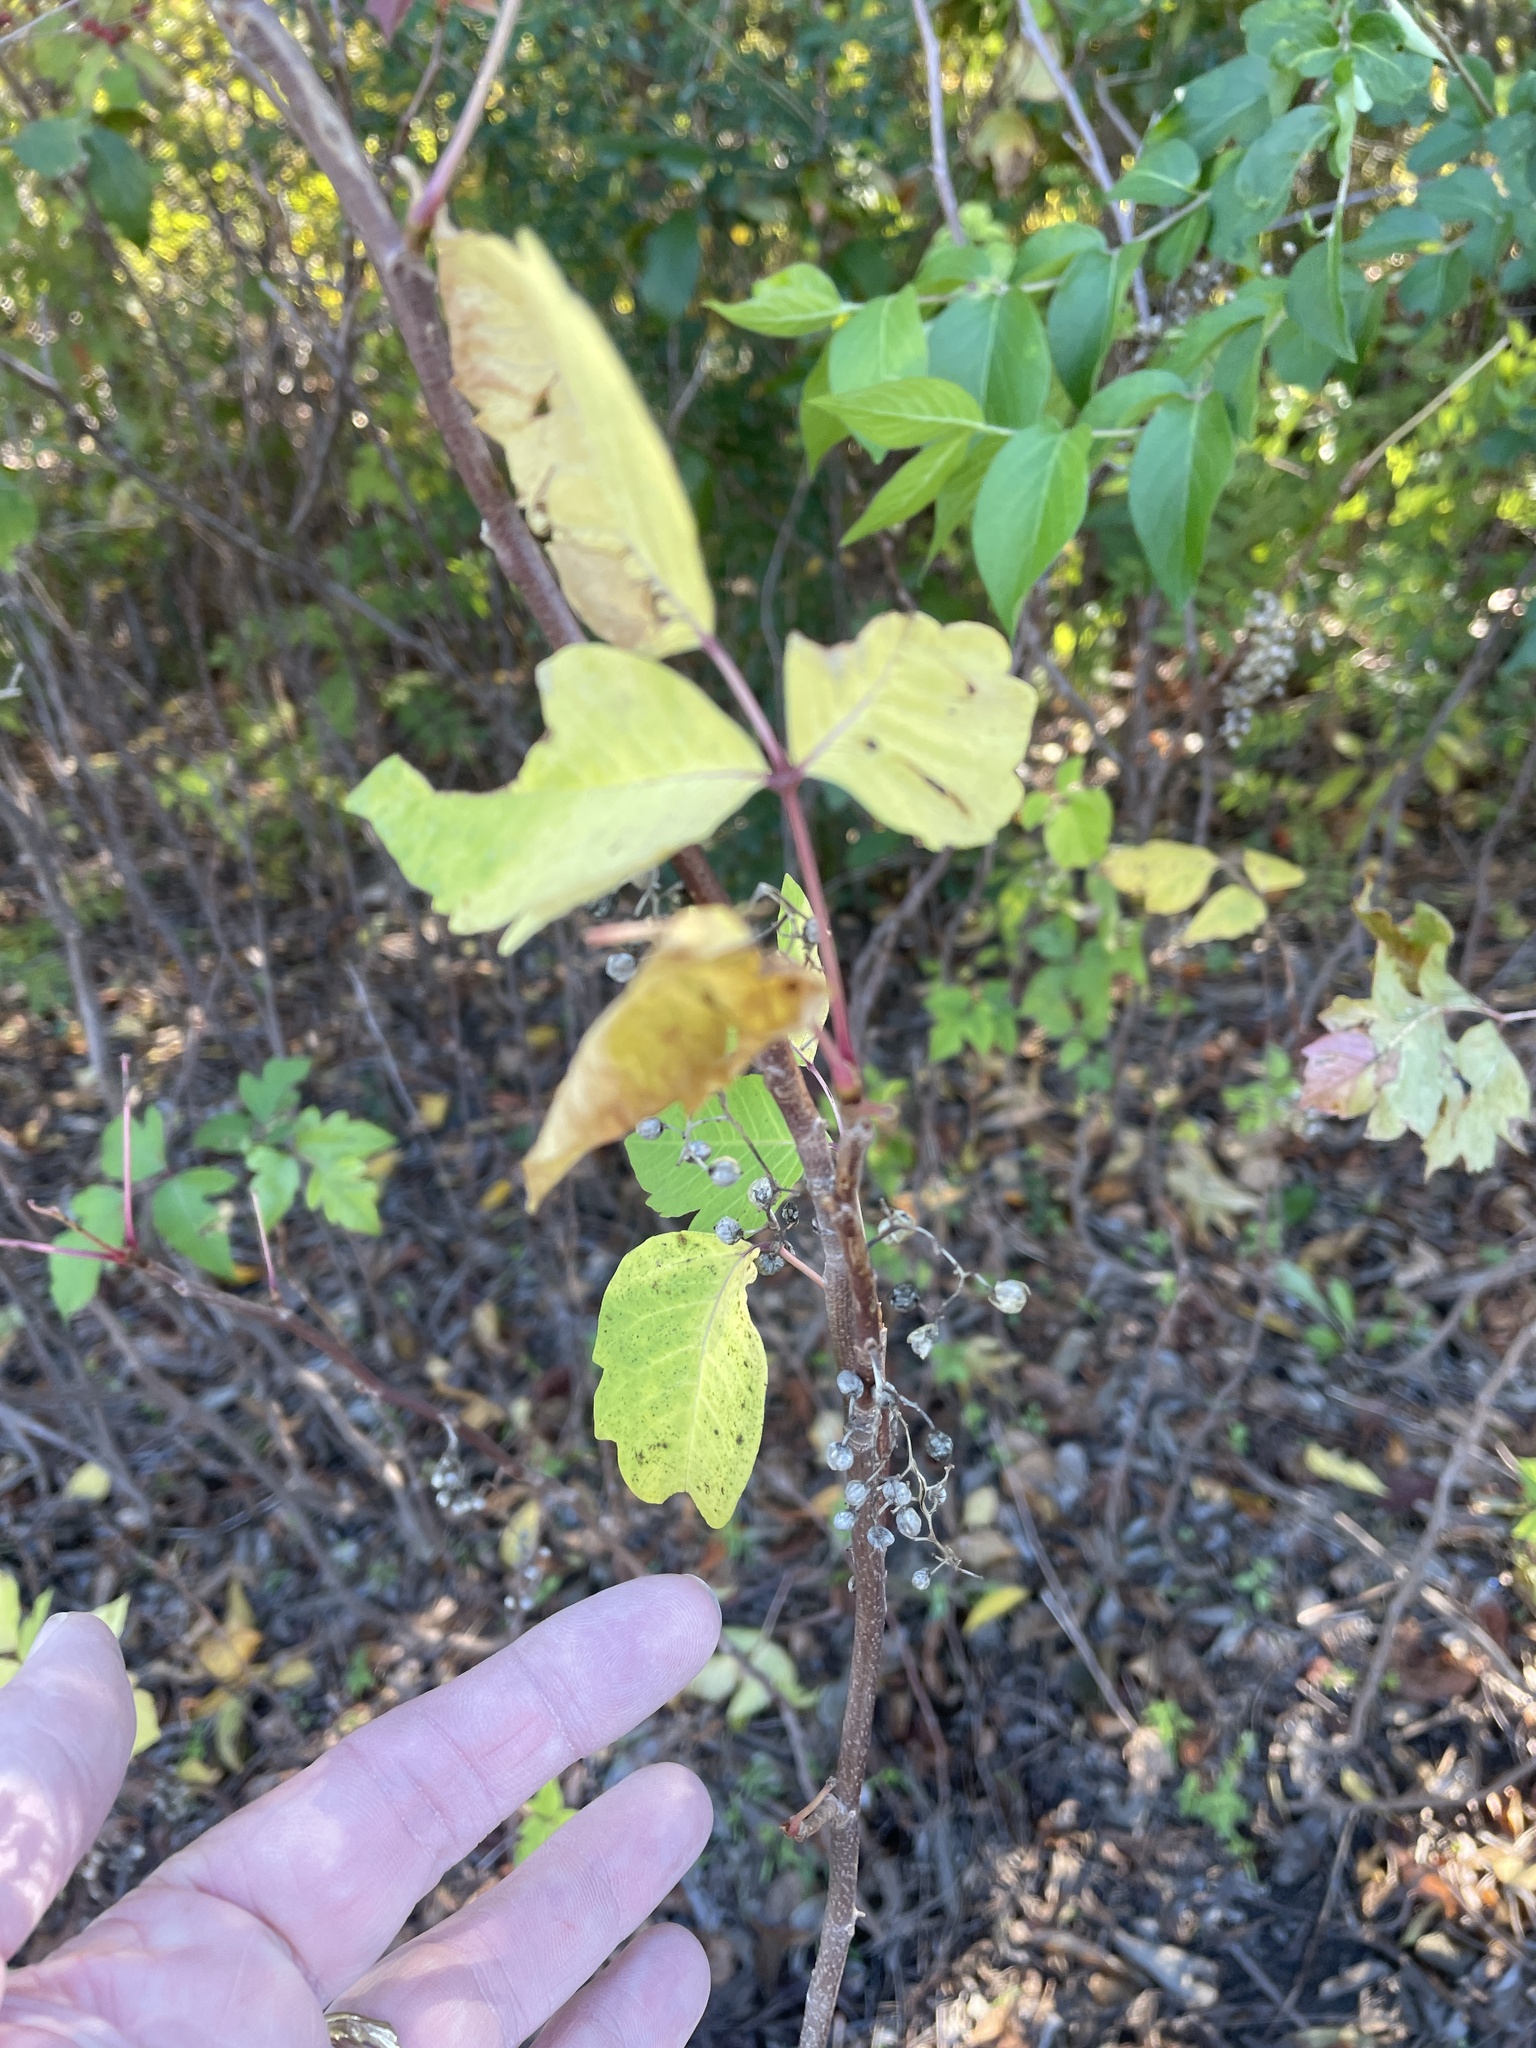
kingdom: Plantae
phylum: Tracheophyta
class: Magnoliopsida
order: Sapindales
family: Anacardiaceae
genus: Toxicodendron
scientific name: Toxicodendron radicans
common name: Poison ivy
